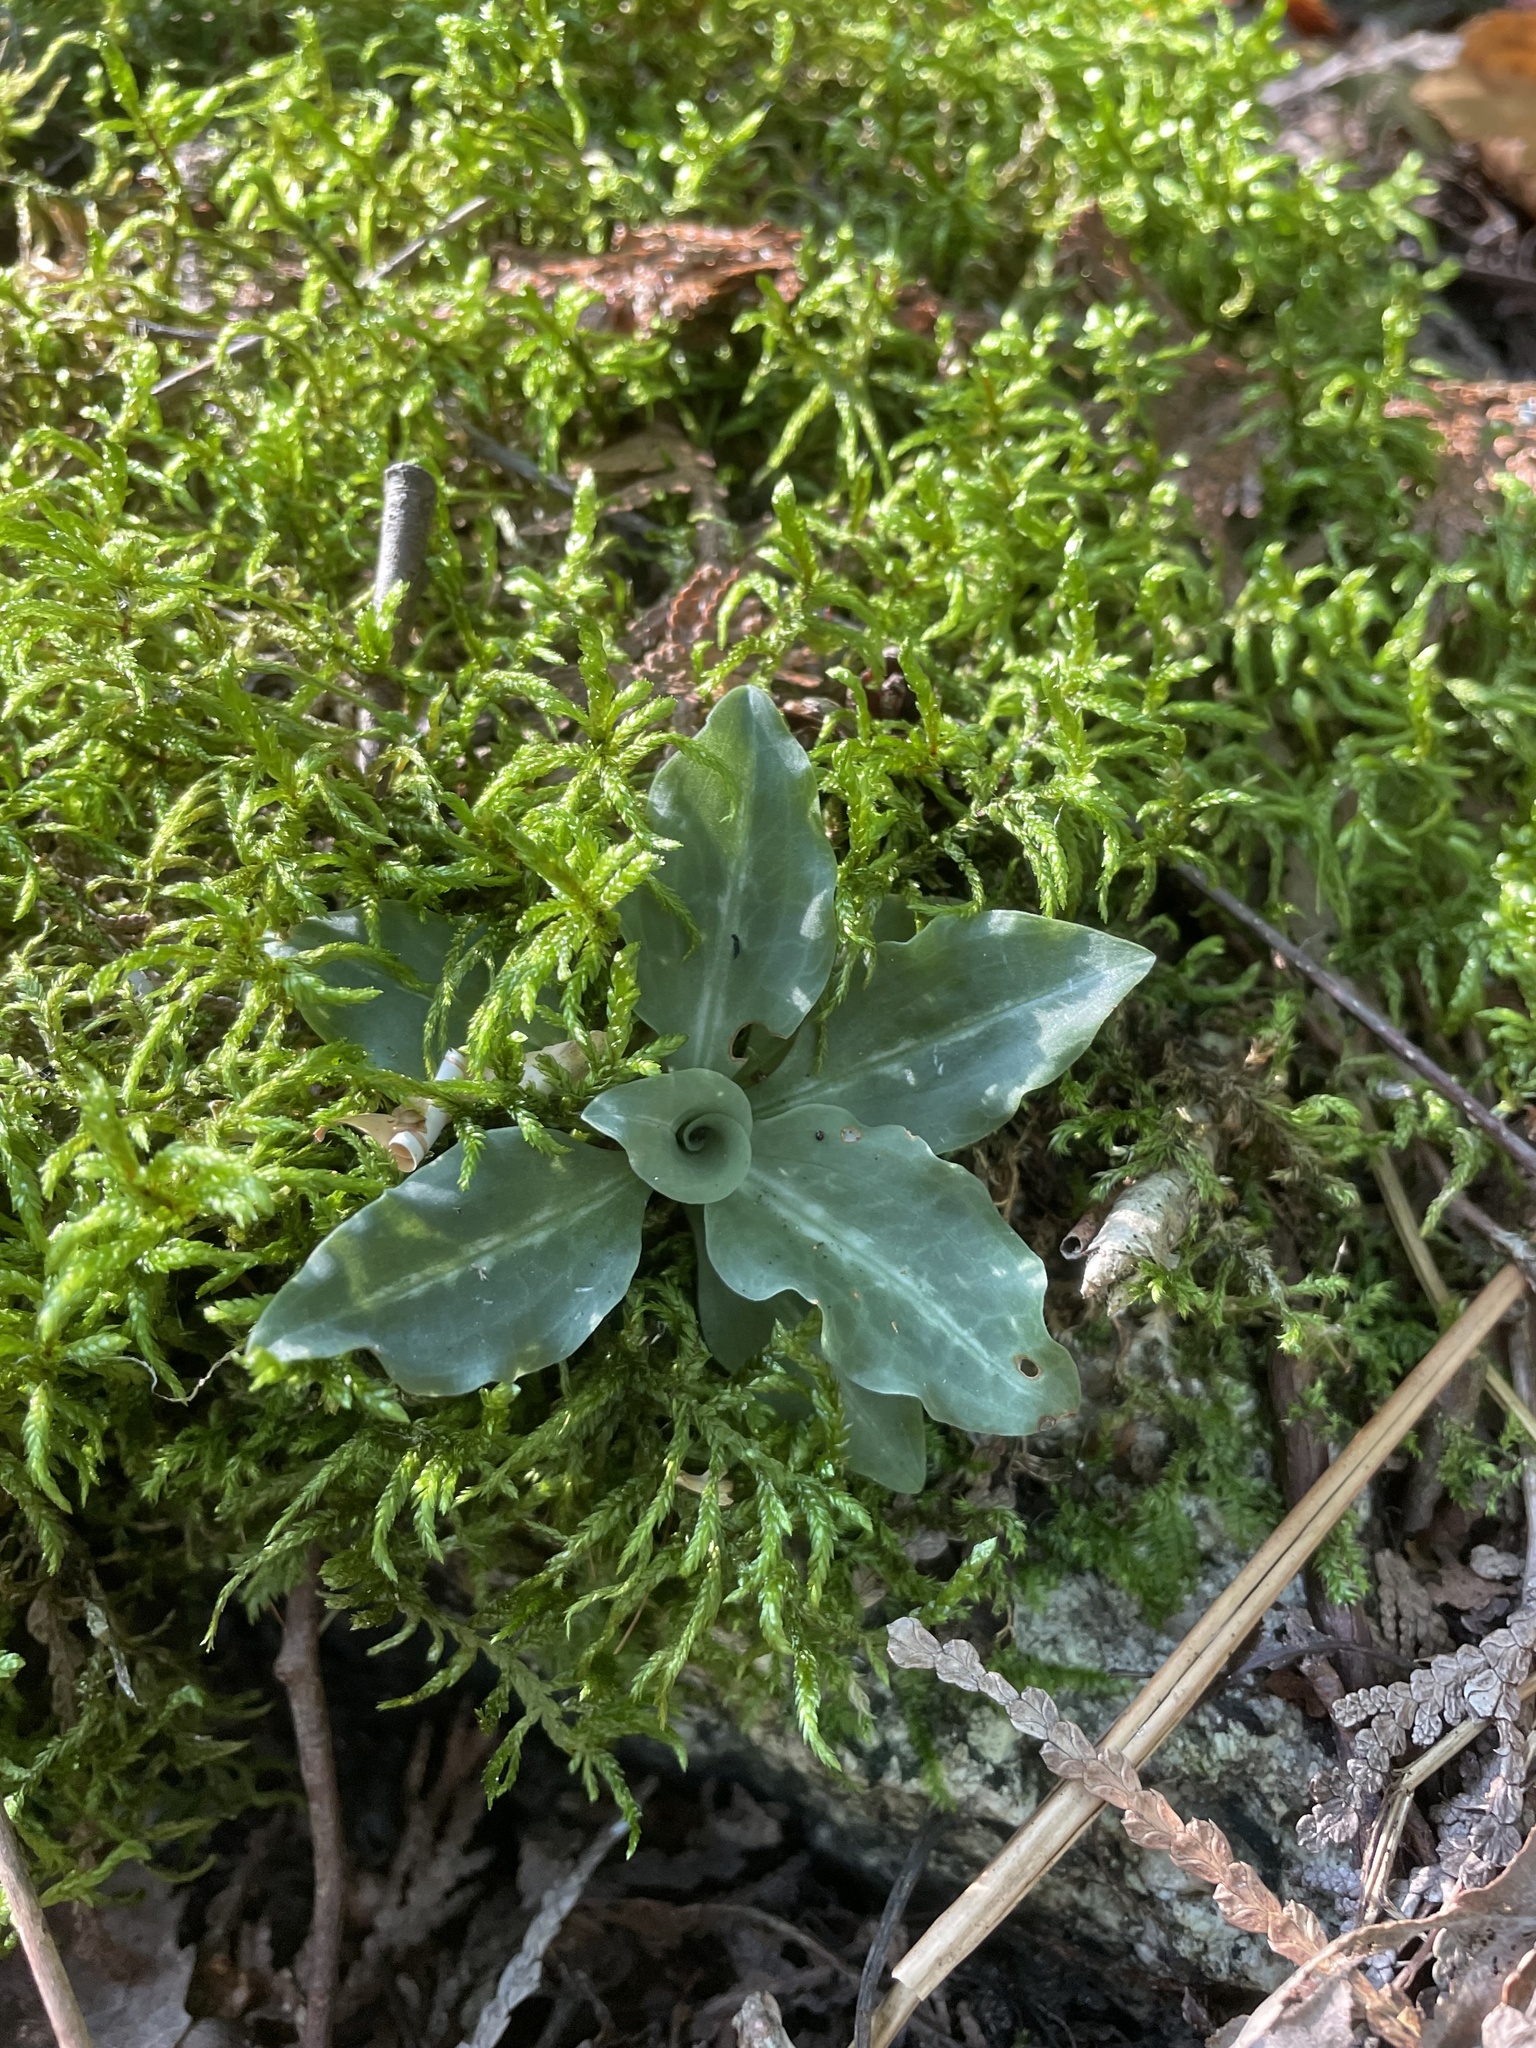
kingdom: Plantae
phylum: Tracheophyta
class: Liliopsida
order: Asparagales
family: Orchidaceae
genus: Goodyera
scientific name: Goodyera oblongifolia
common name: Giant rattlesnake-plantain
